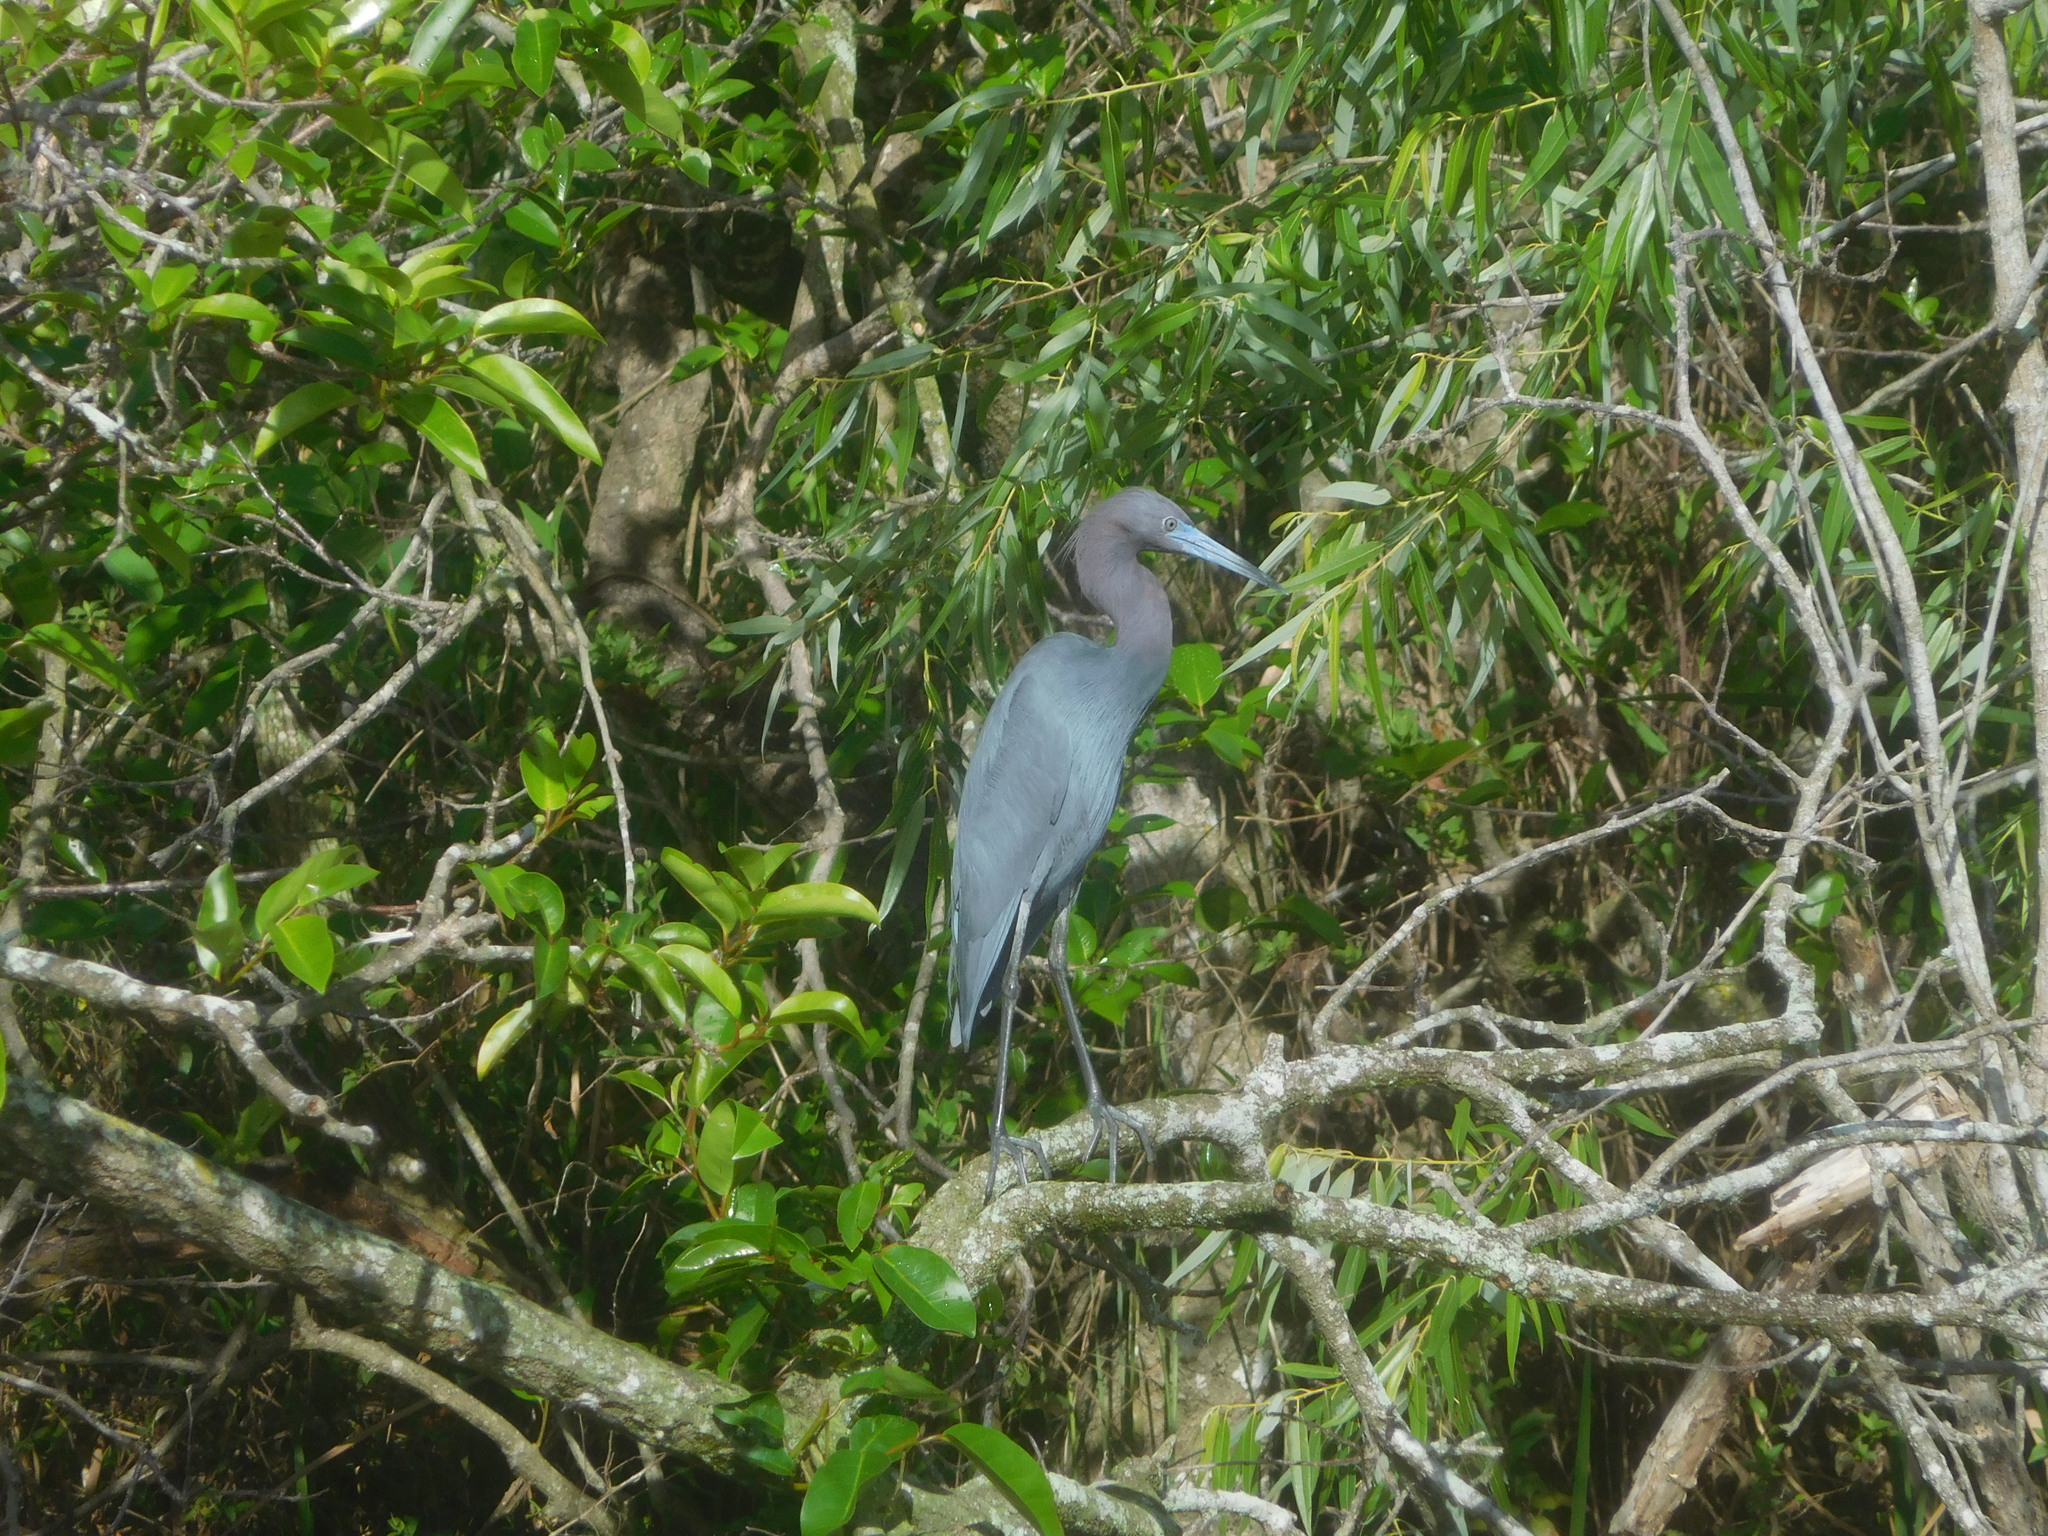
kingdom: Animalia
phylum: Chordata
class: Aves
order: Pelecaniformes
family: Ardeidae
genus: Egretta
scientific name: Egretta caerulea
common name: Little blue heron
